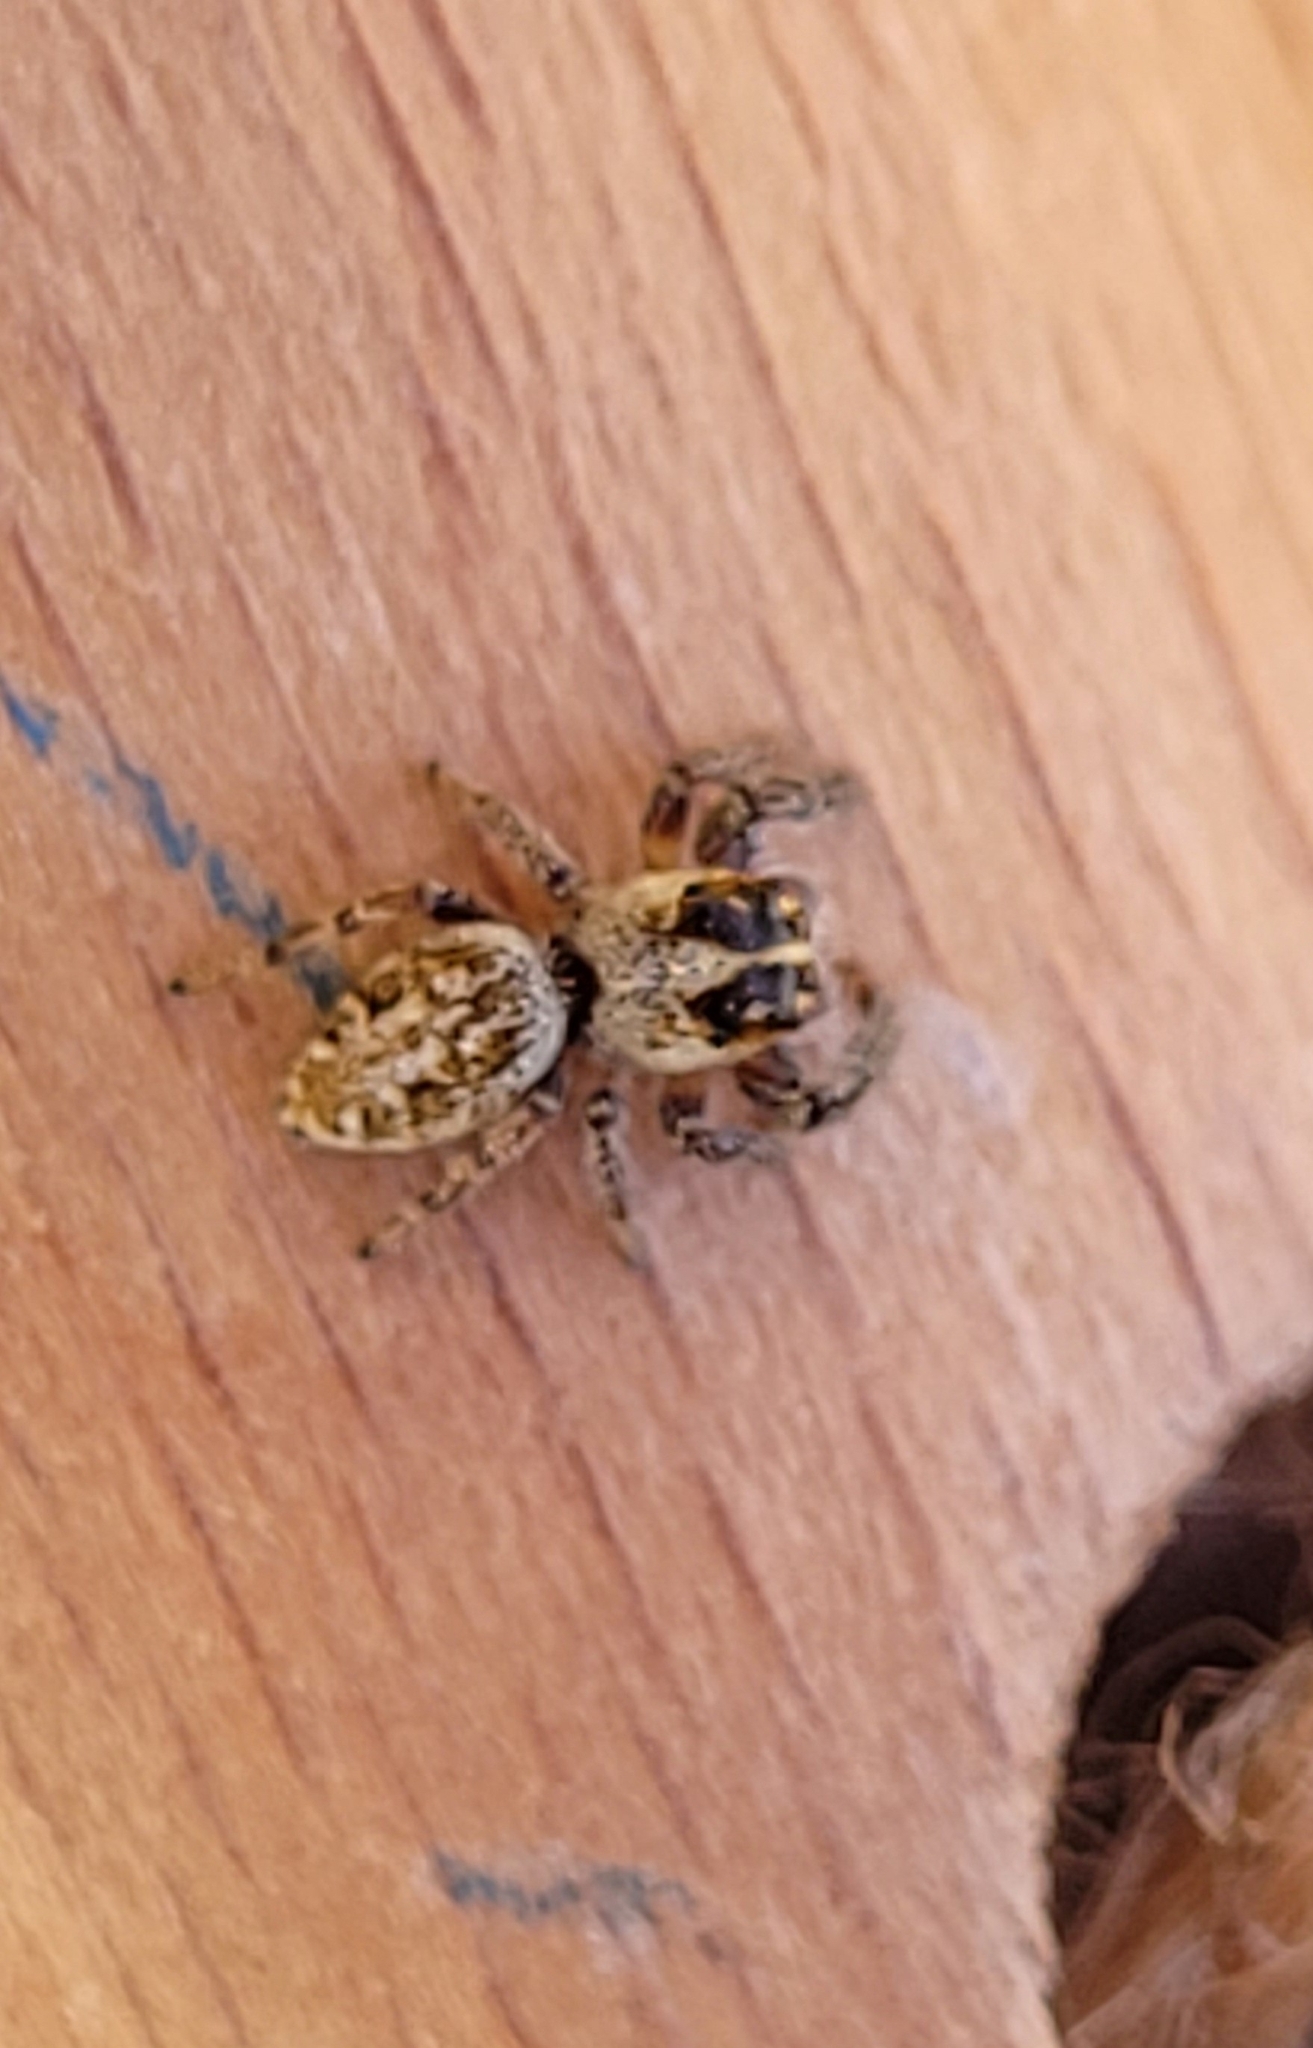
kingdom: Animalia
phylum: Arthropoda
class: Arachnida
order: Araneae
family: Salticidae
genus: Macaroeris
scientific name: Macaroeris nidicolens
